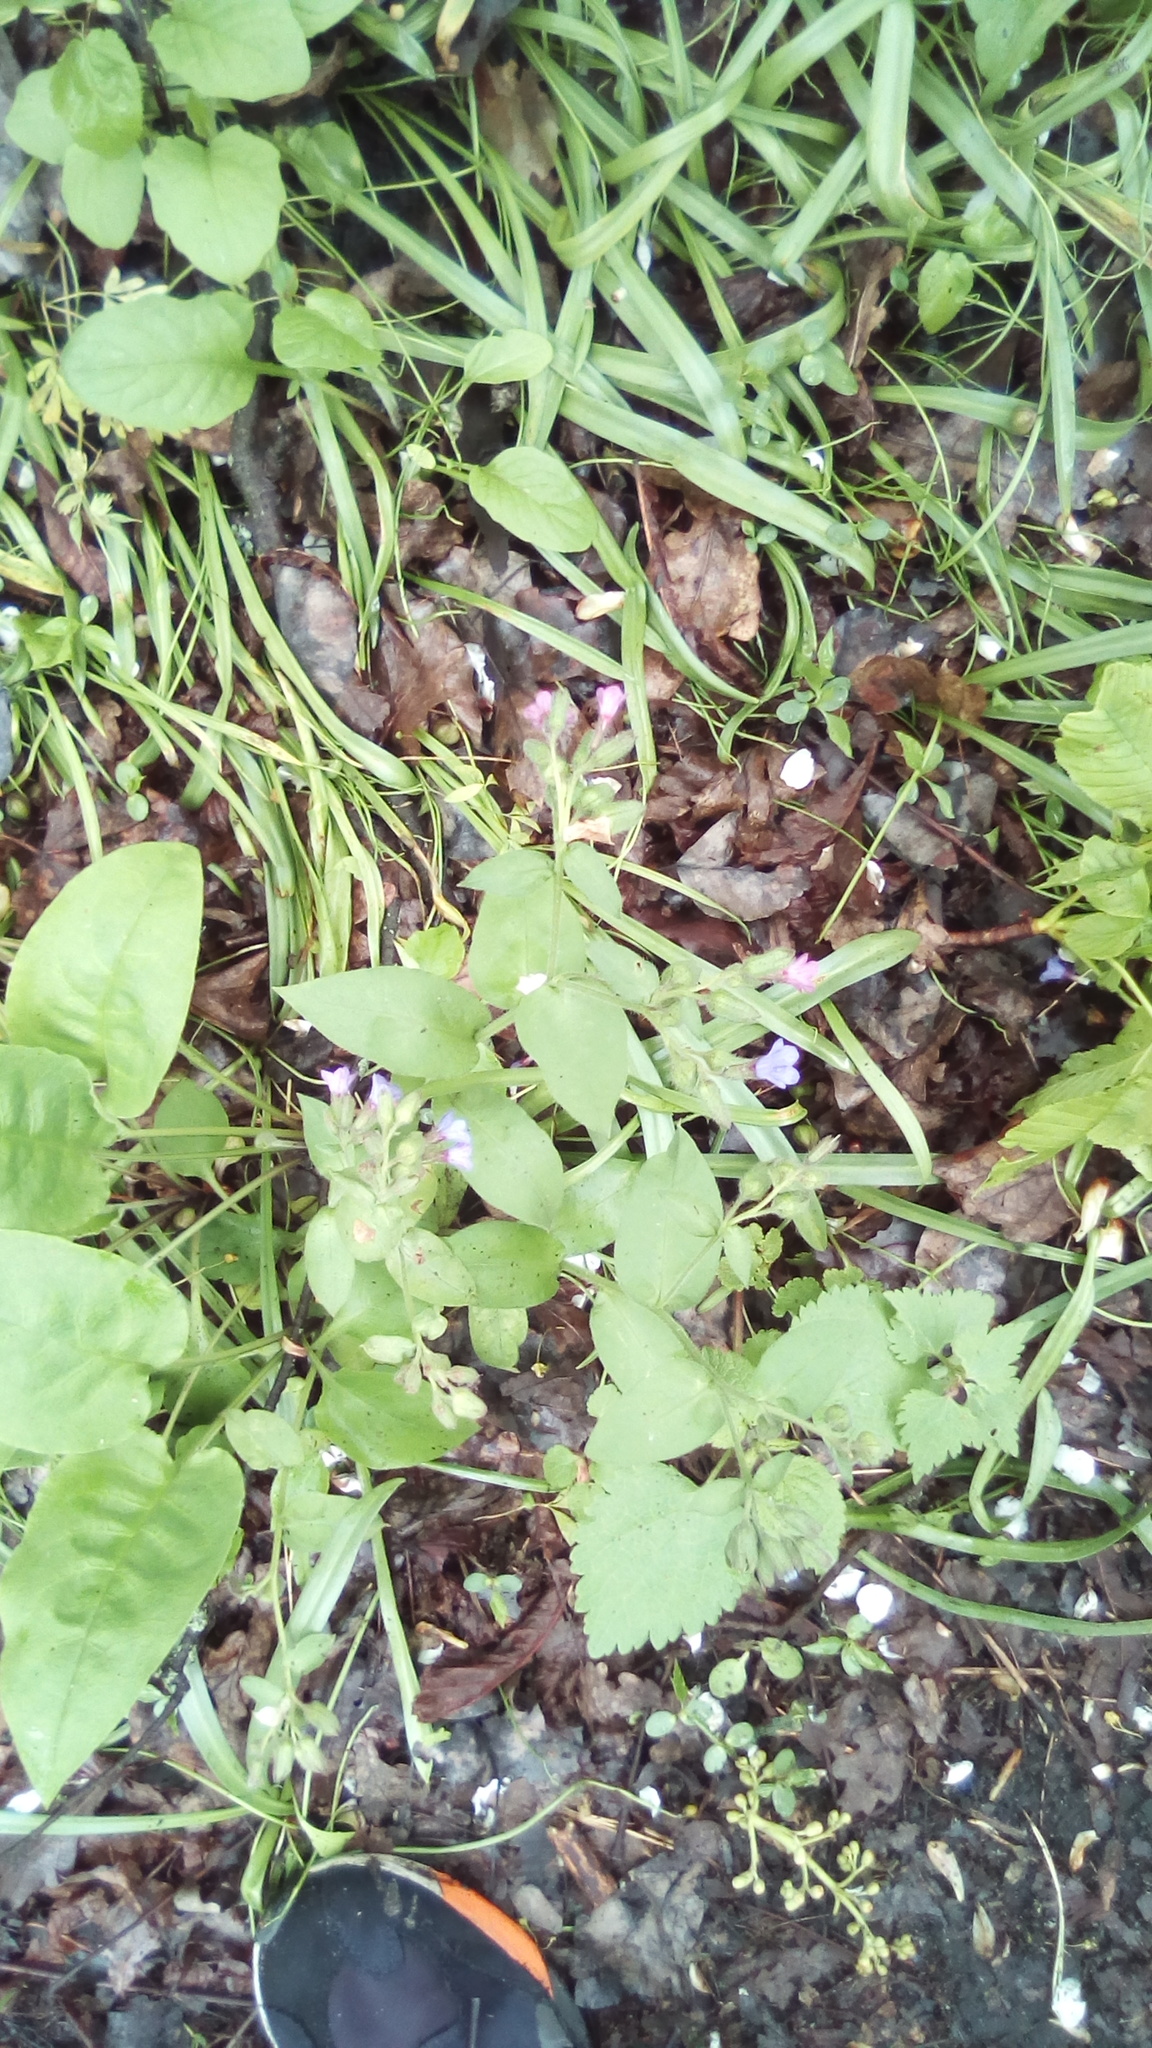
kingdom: Plantae
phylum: Tracheophyta
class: Magnoliopsida
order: Boraginales
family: Boraginaceae
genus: Pulmonaria
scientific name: Pulmonaria obscura
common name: Suffolk lungwort
